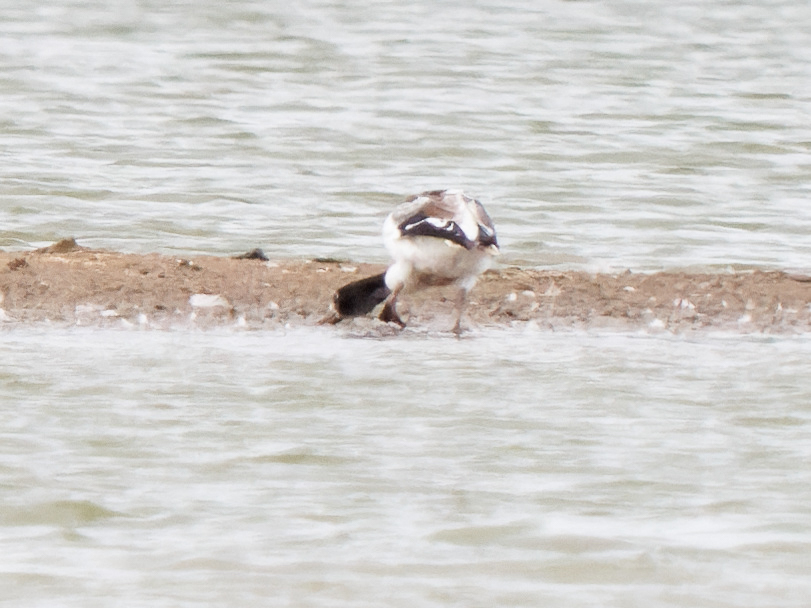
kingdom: Animalia
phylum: Chordata
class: Aves
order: Anseriformes
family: Anatidae
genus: Tadorna
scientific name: Tadorna tadorna
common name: Common shelduck
